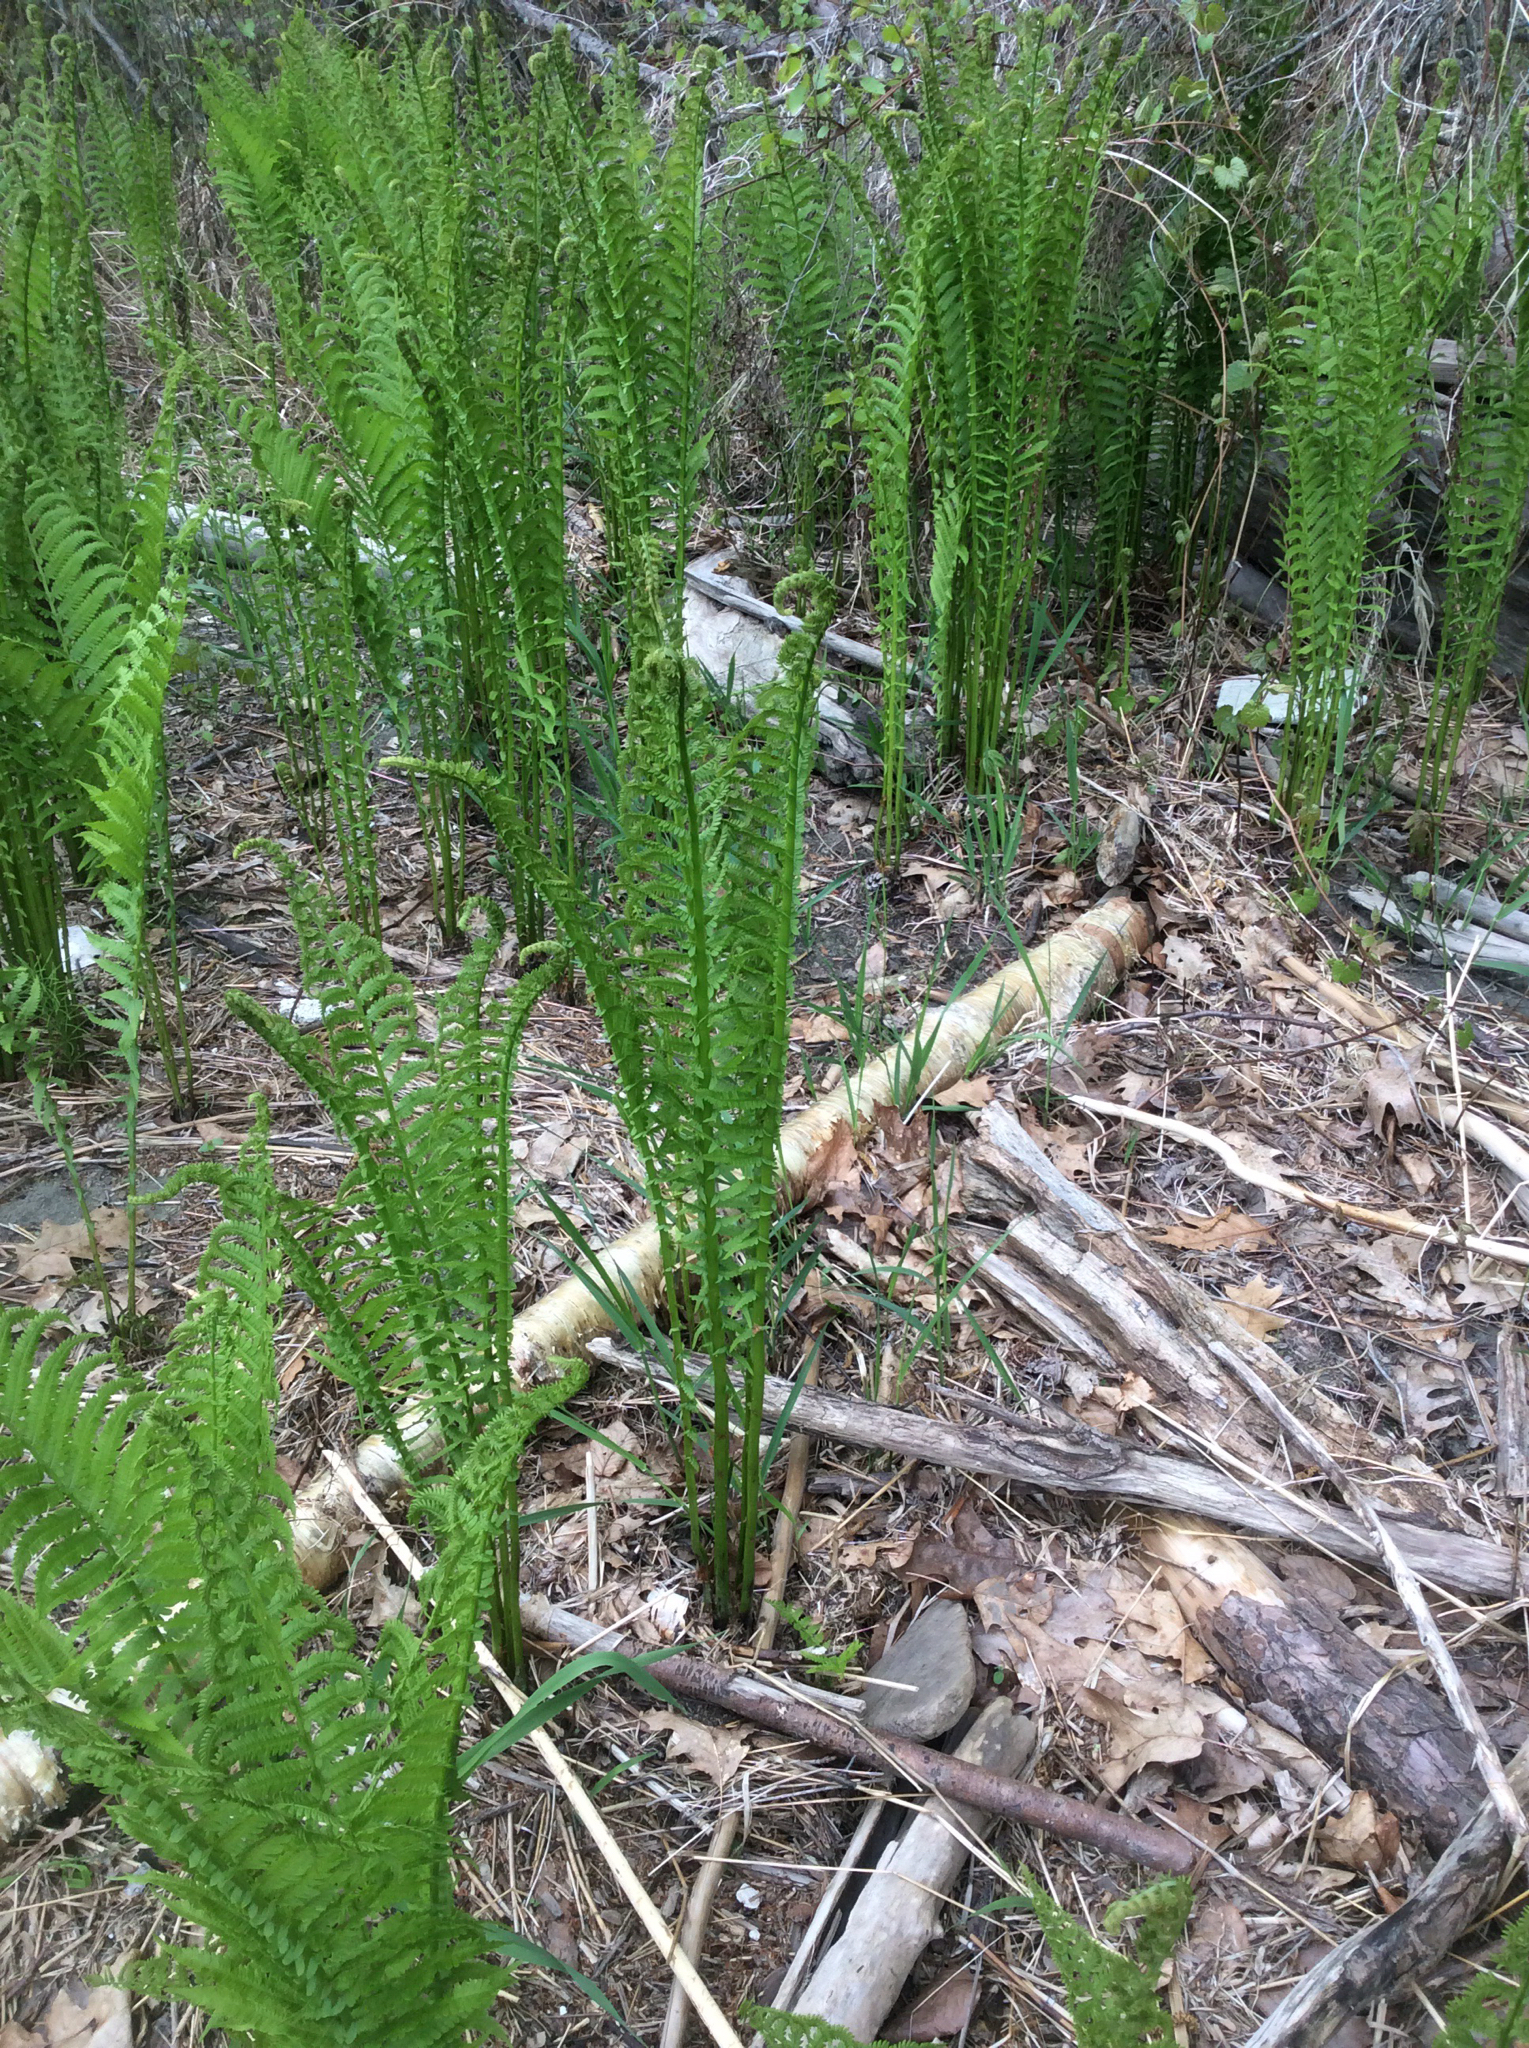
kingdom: Plantae
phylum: Tracheophyta
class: Polypodiopsida
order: Polypodiales
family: Onocleaceae
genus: Matteuccia
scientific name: Matteuccia struthiopteris
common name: Ostrich fern
